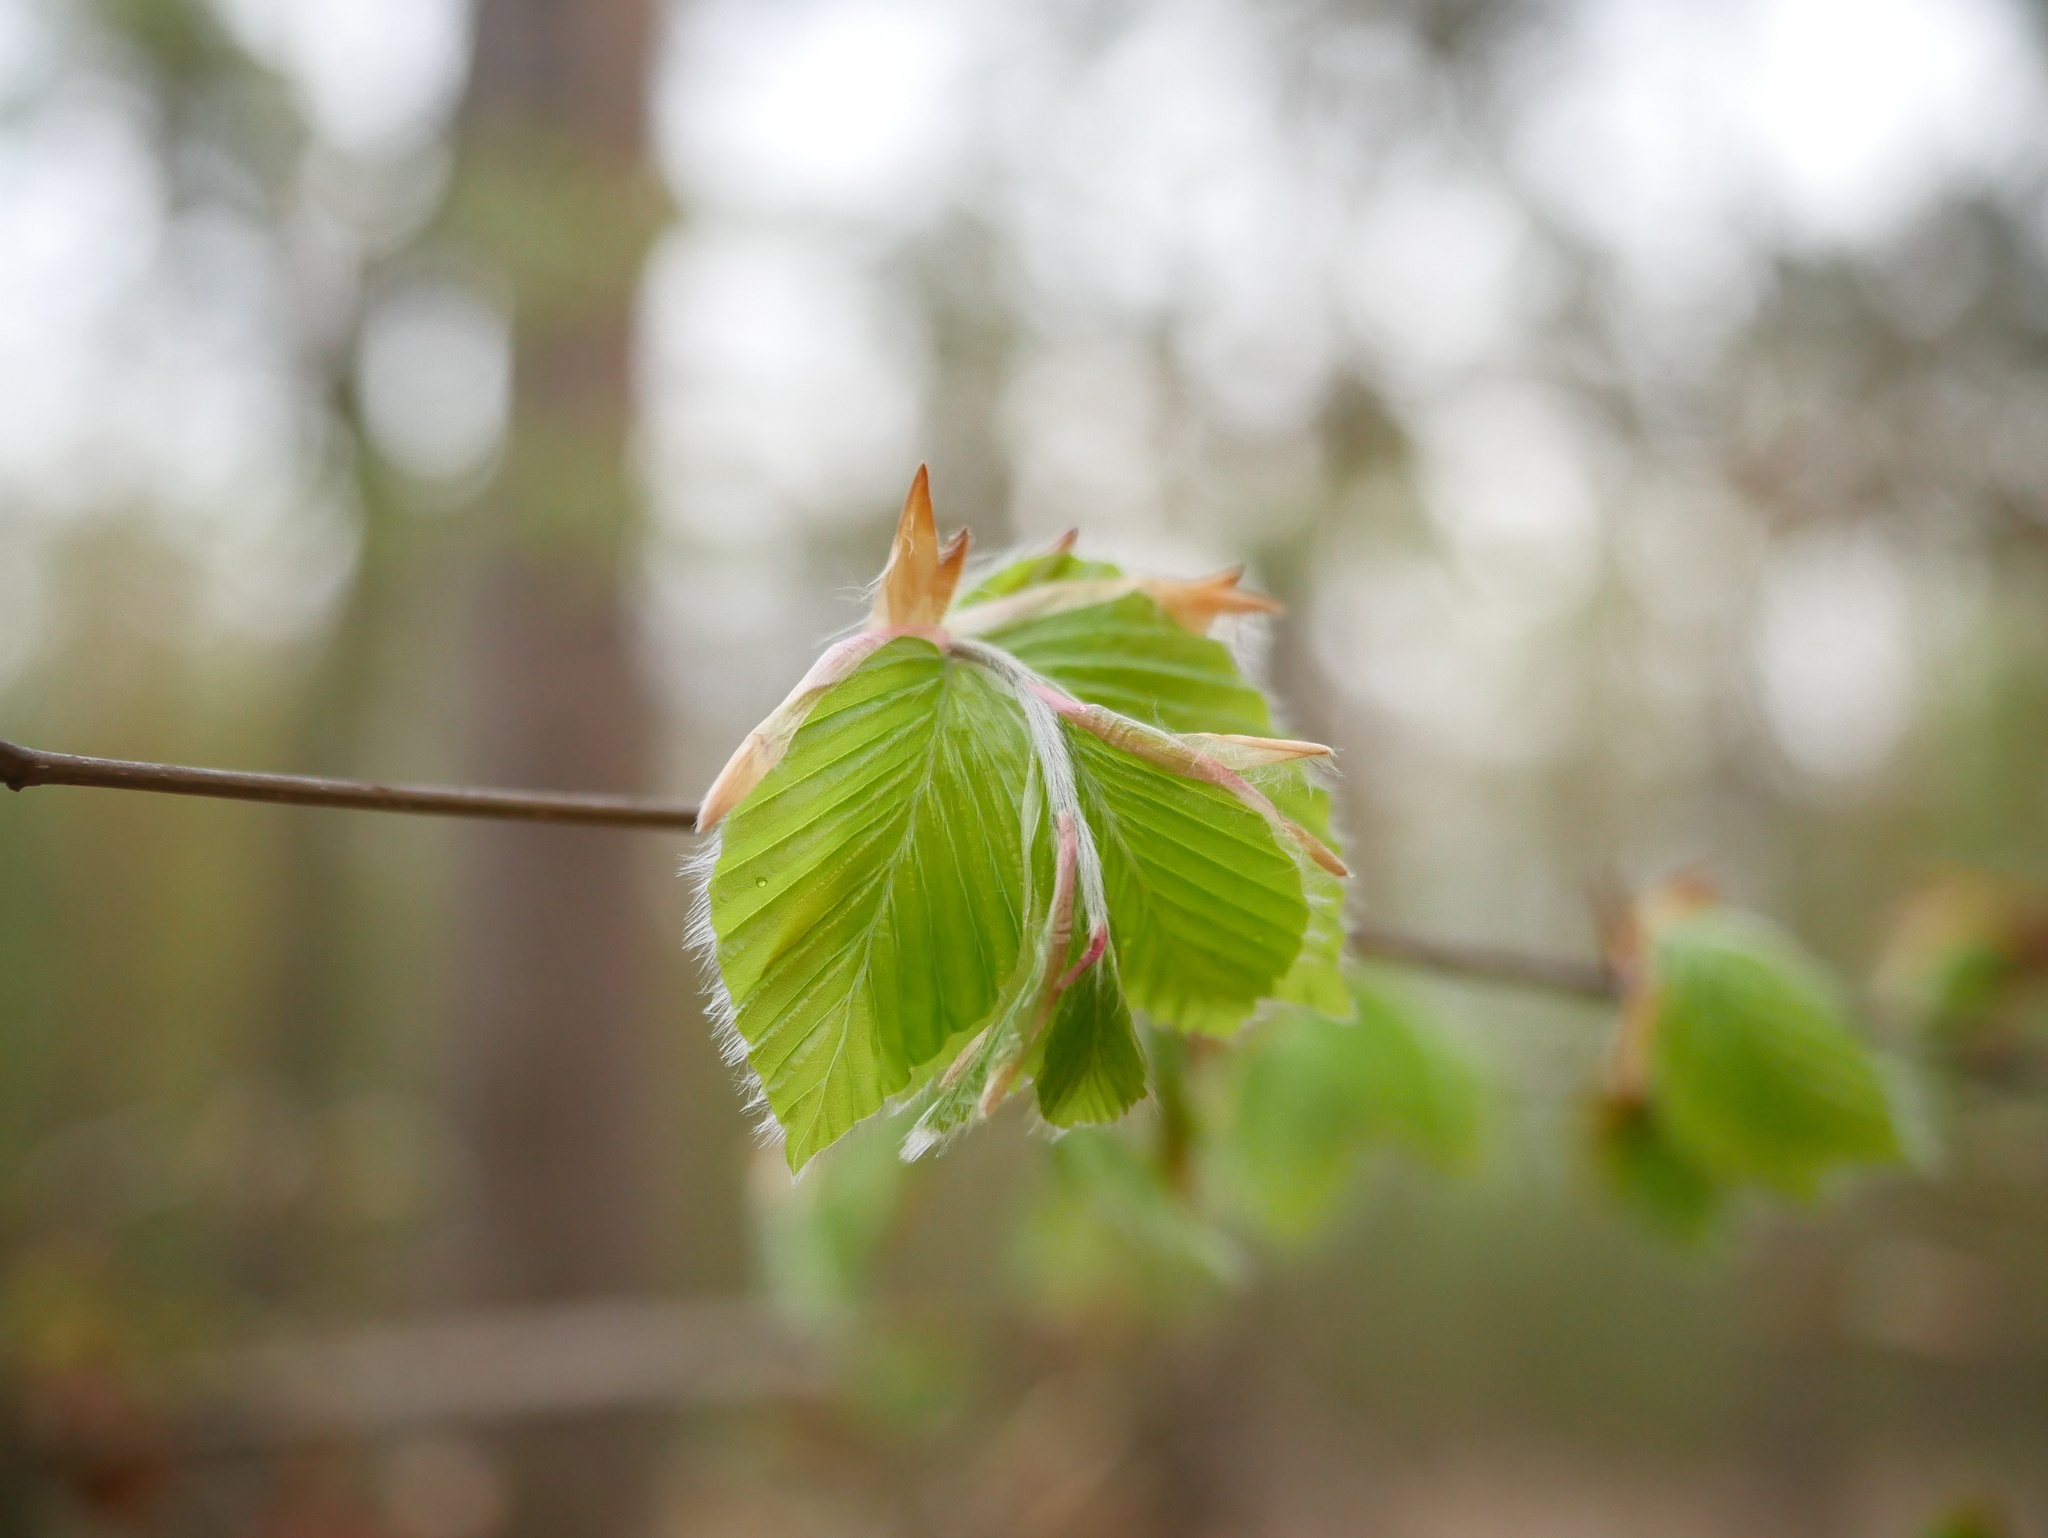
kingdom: Plantae
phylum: Tracheophyta
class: Magnoliopsida
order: Fagales
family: Fagaceae
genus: Fagus
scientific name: Fagus sylvatica
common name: Beech
